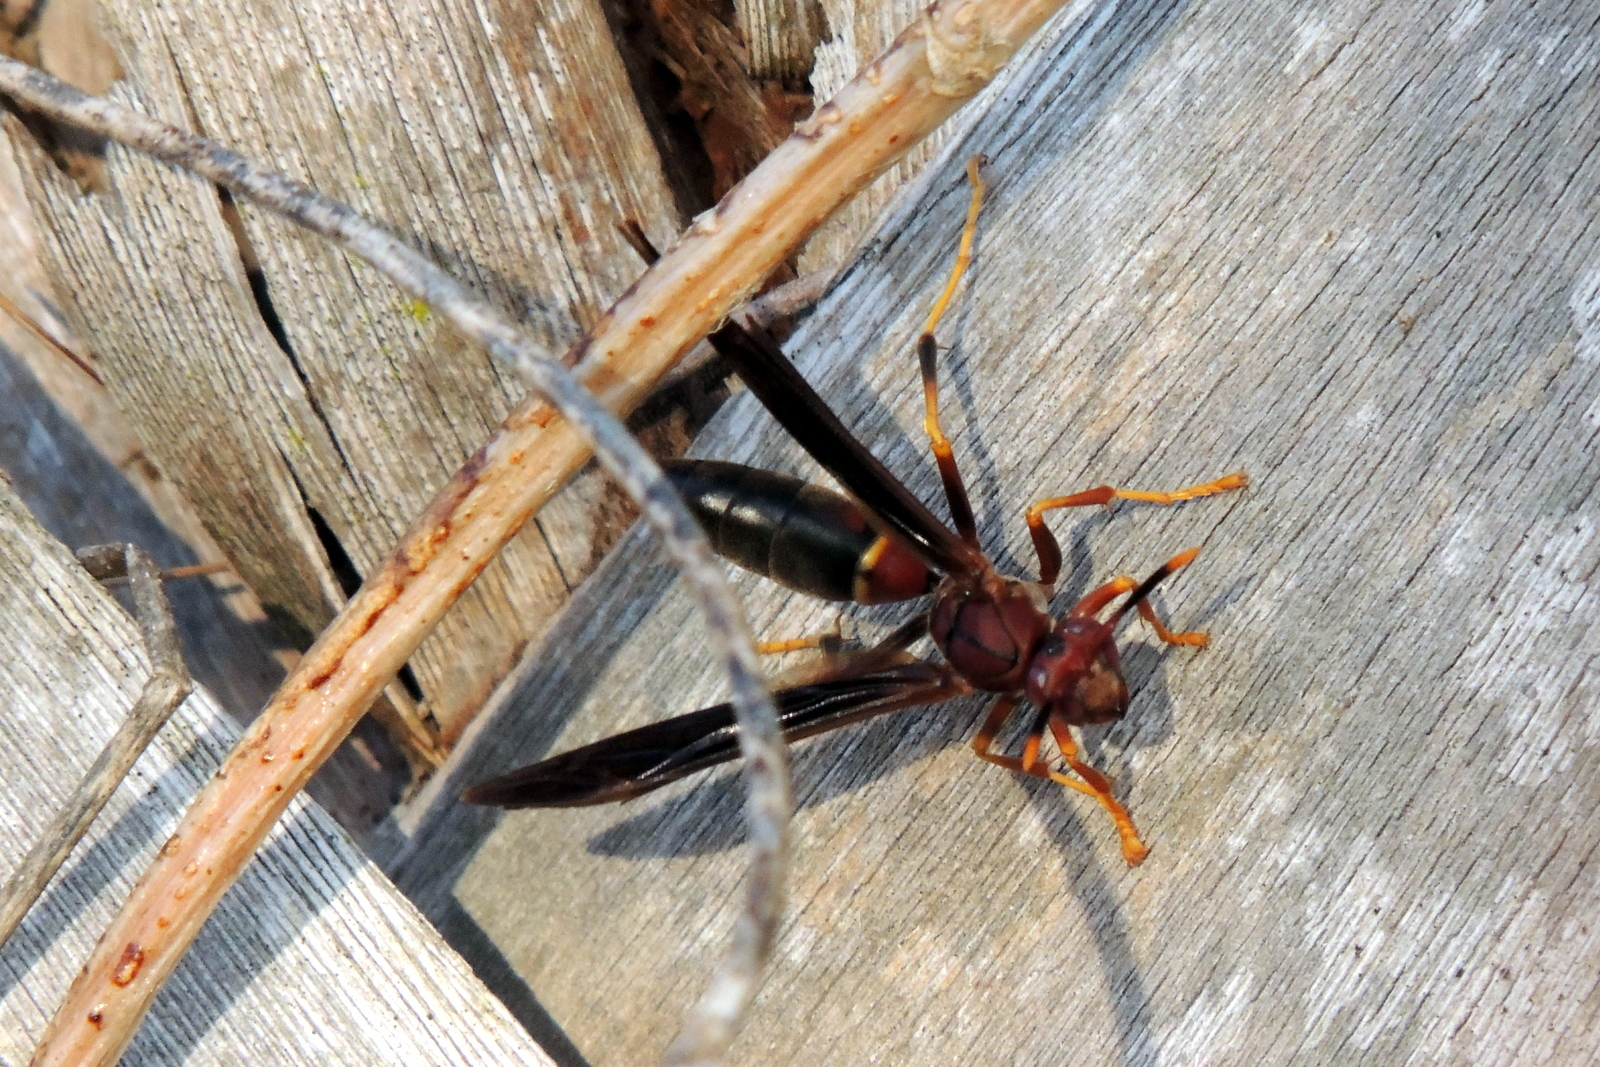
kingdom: Animalia
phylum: Arthropoda
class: Insecta
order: Hymenoptera
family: Eumenidae
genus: Polistes
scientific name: Polistes annularis
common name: Ringed paper wasp
